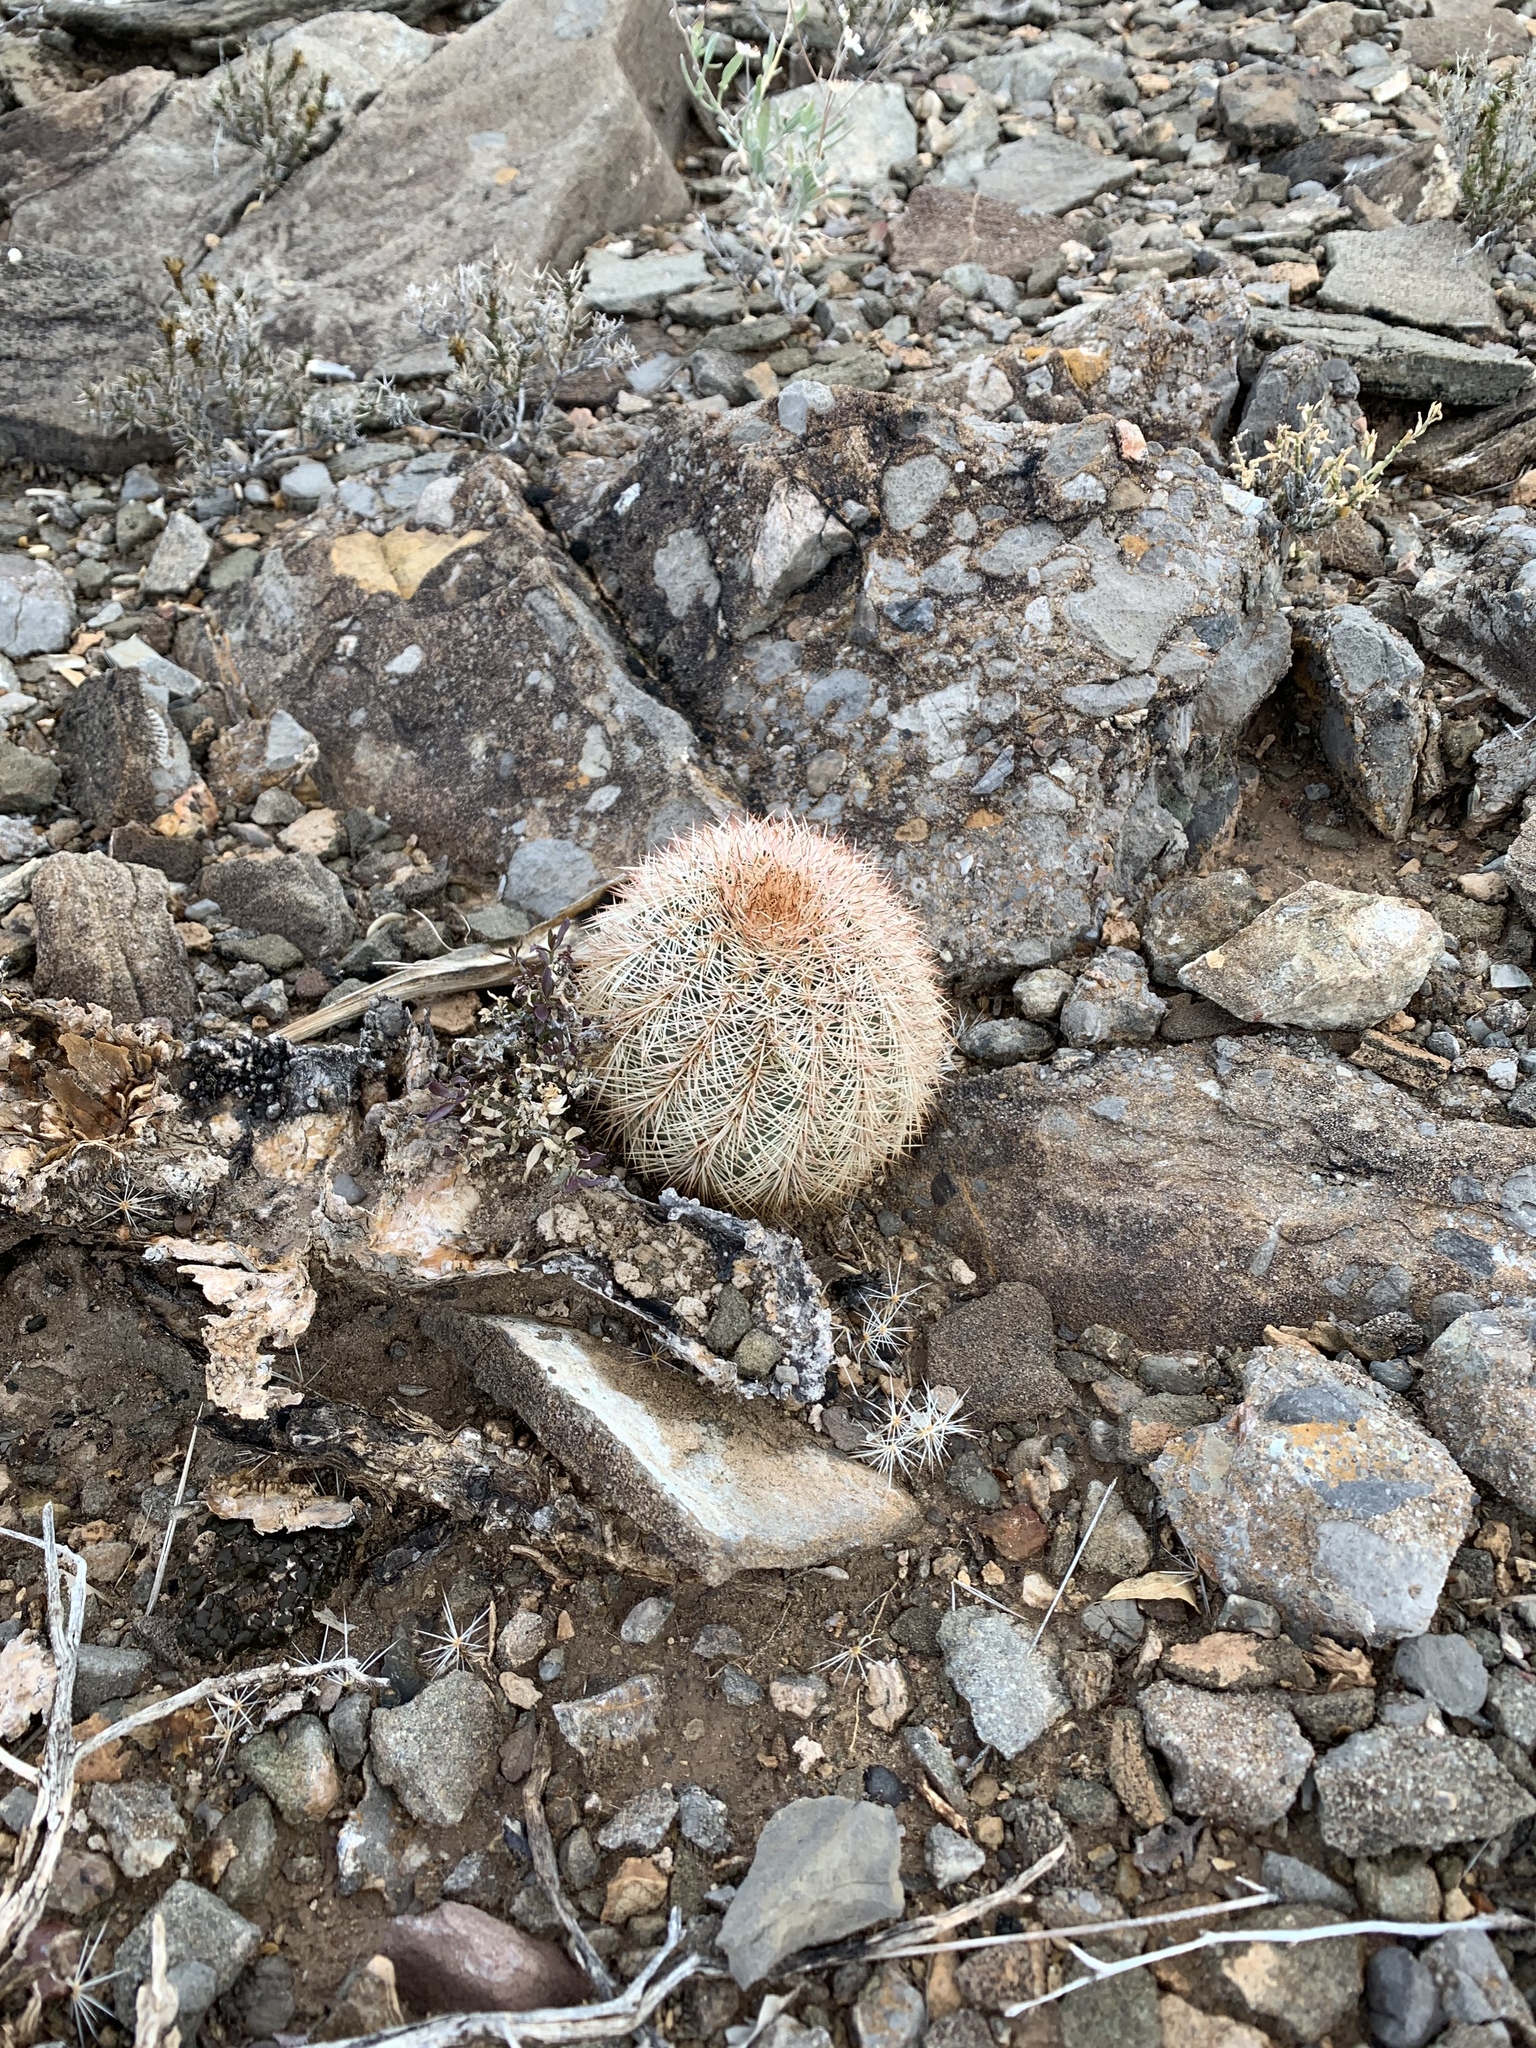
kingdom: Plantae
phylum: Tracheophyta
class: Magnoliopsida
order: Caryophyllales
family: Cactaceae
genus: Echinocereus
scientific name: Echinocereus dasyacanthus
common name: Spiny hedgehog cactus
